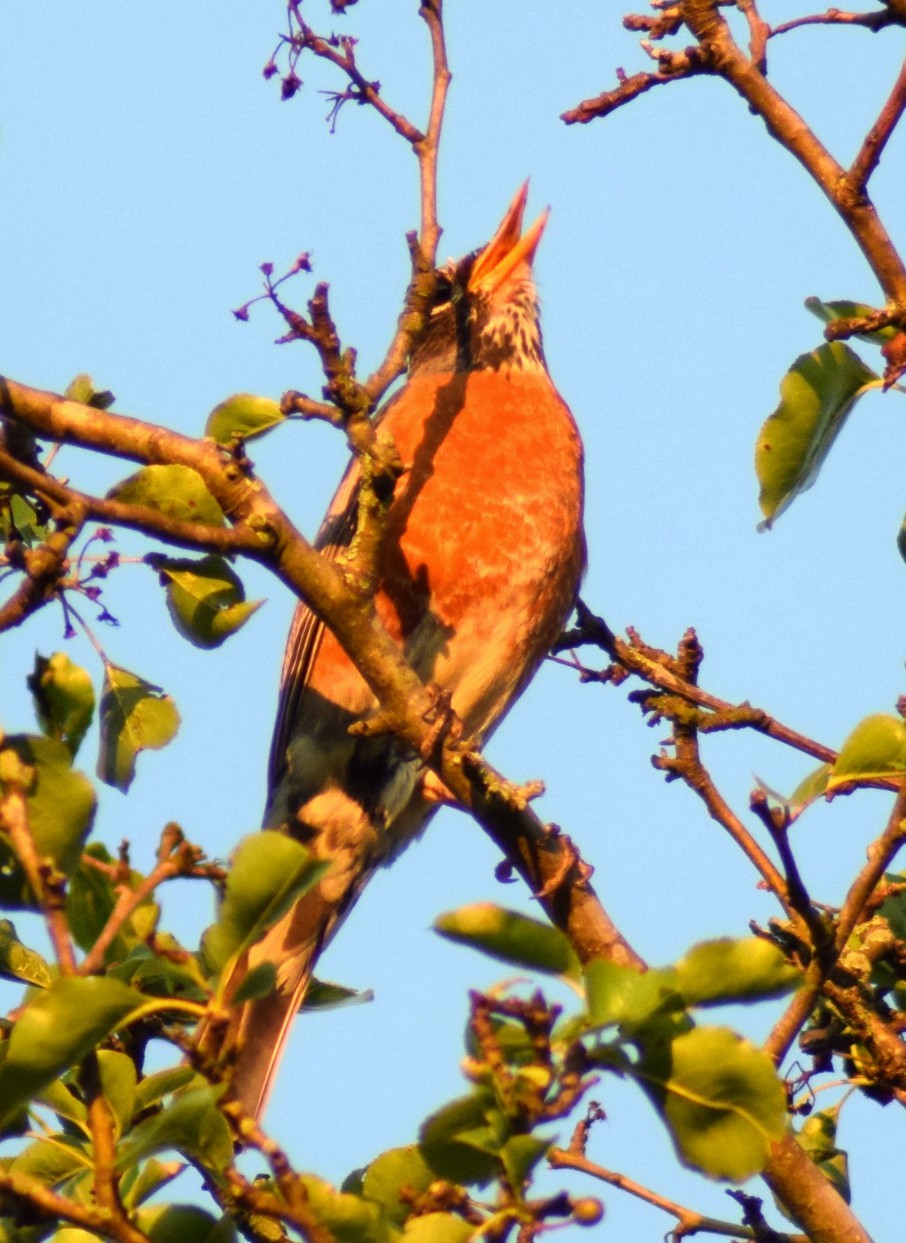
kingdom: Animalia
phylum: Chordata
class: Aves
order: Passeriformes
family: Turdidae
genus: Turdus
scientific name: Turdus migratorius
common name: American robin
